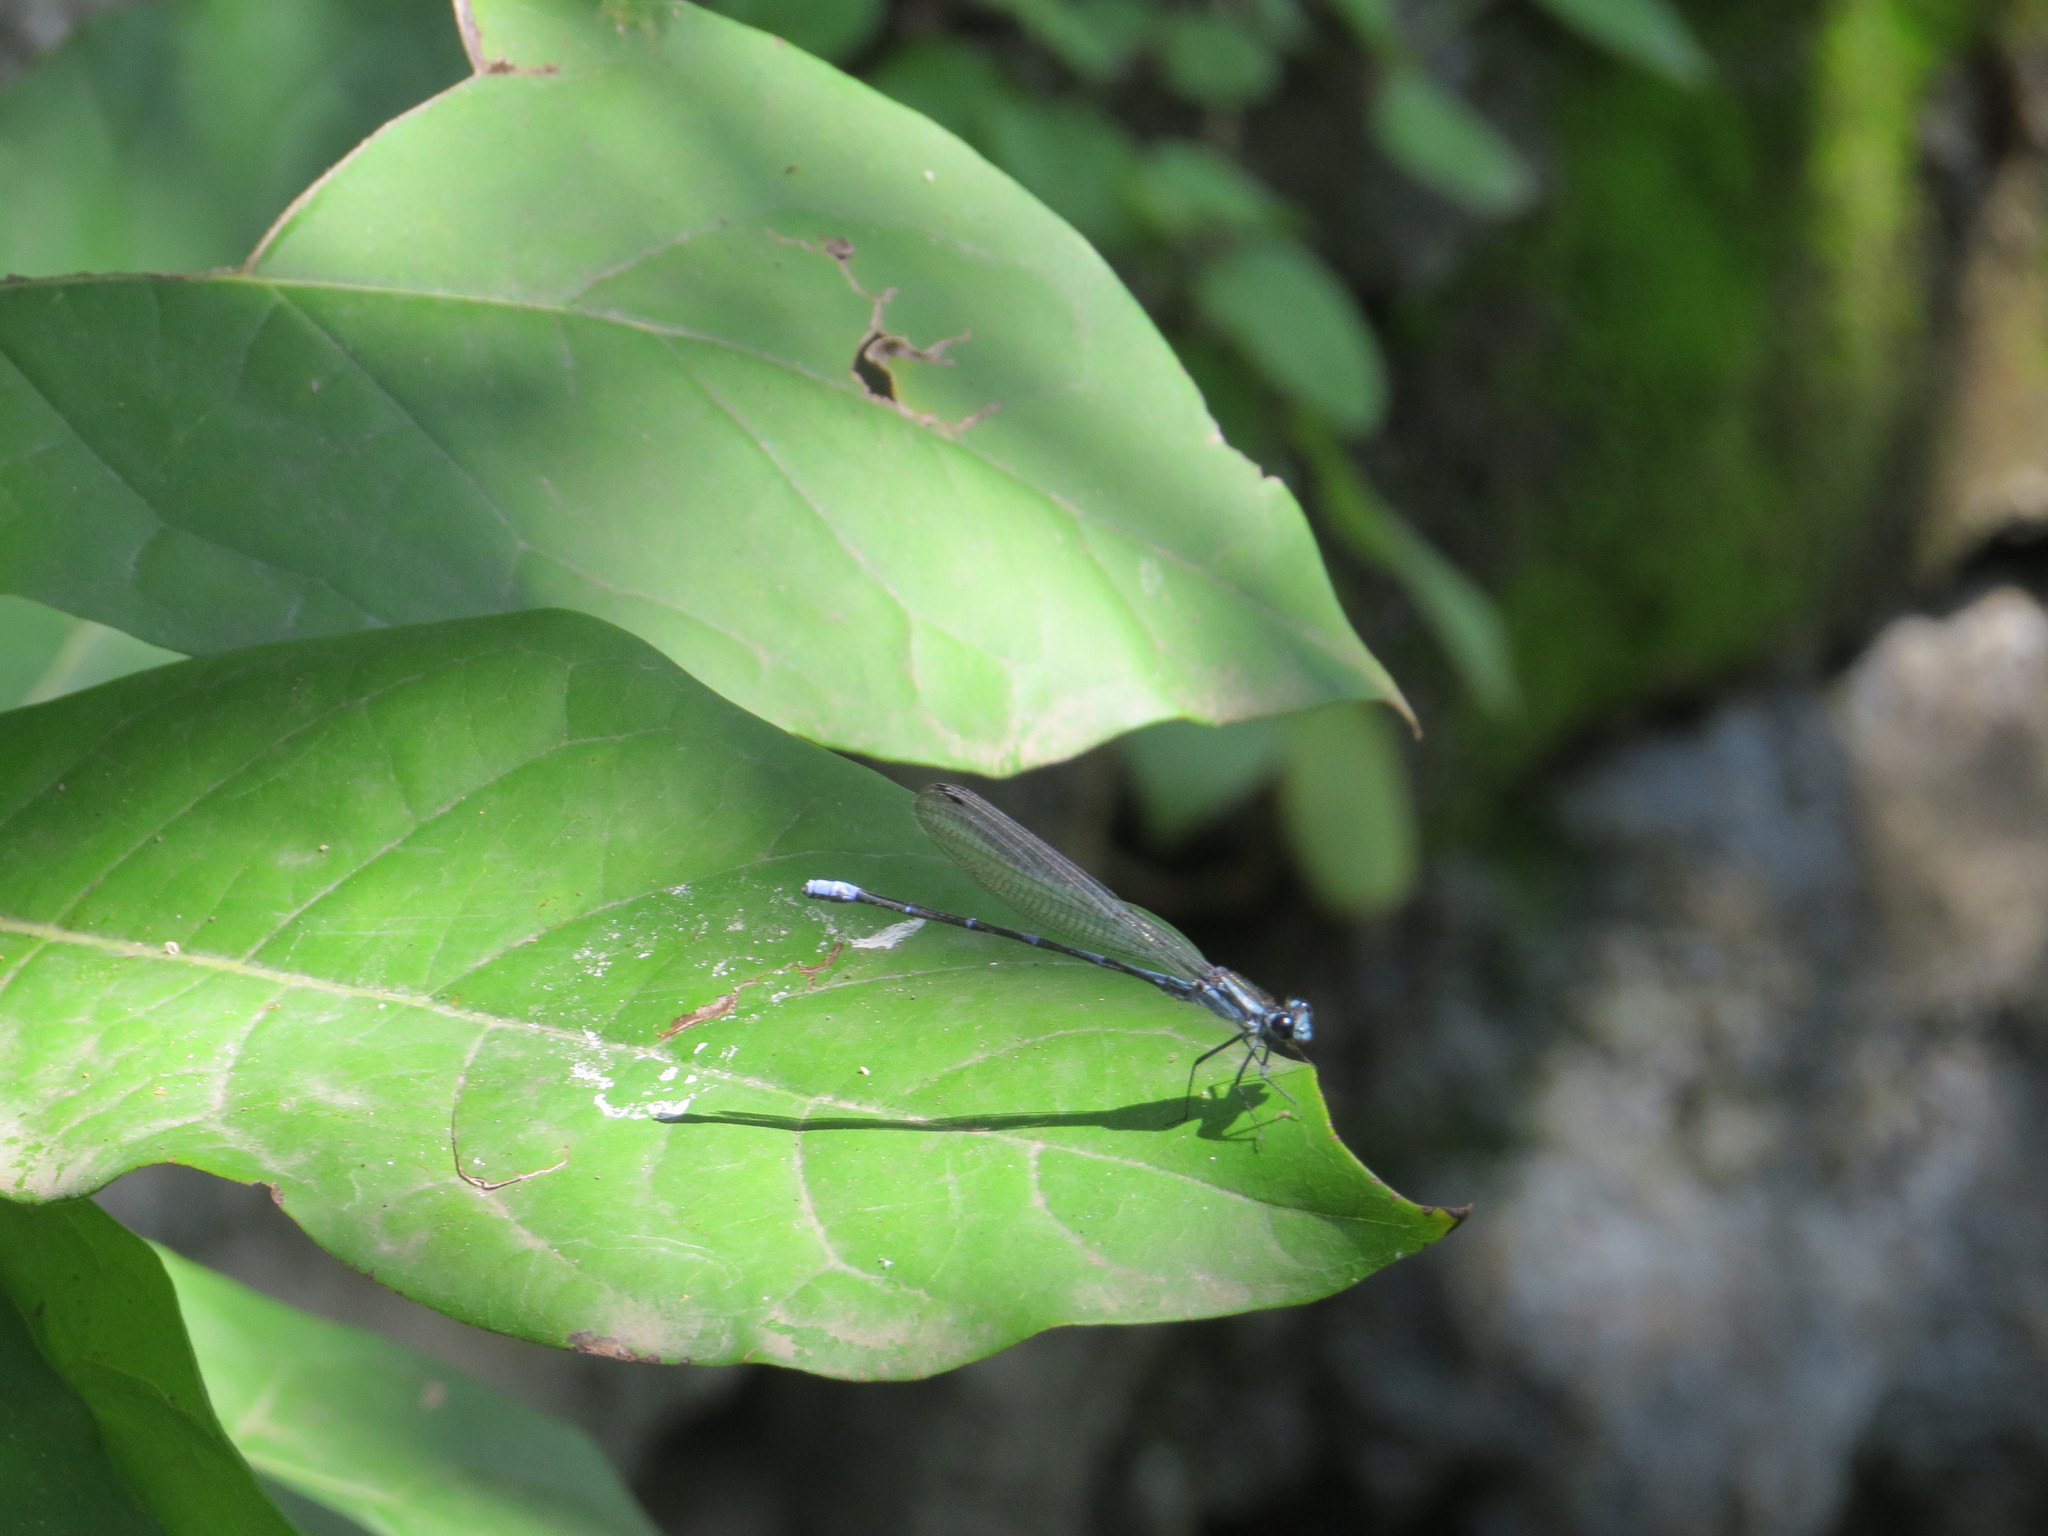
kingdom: Animalia
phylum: Arthropoda
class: Insecta
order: Odonata
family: Coenagrionidae
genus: Argia
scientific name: Argia oculata
